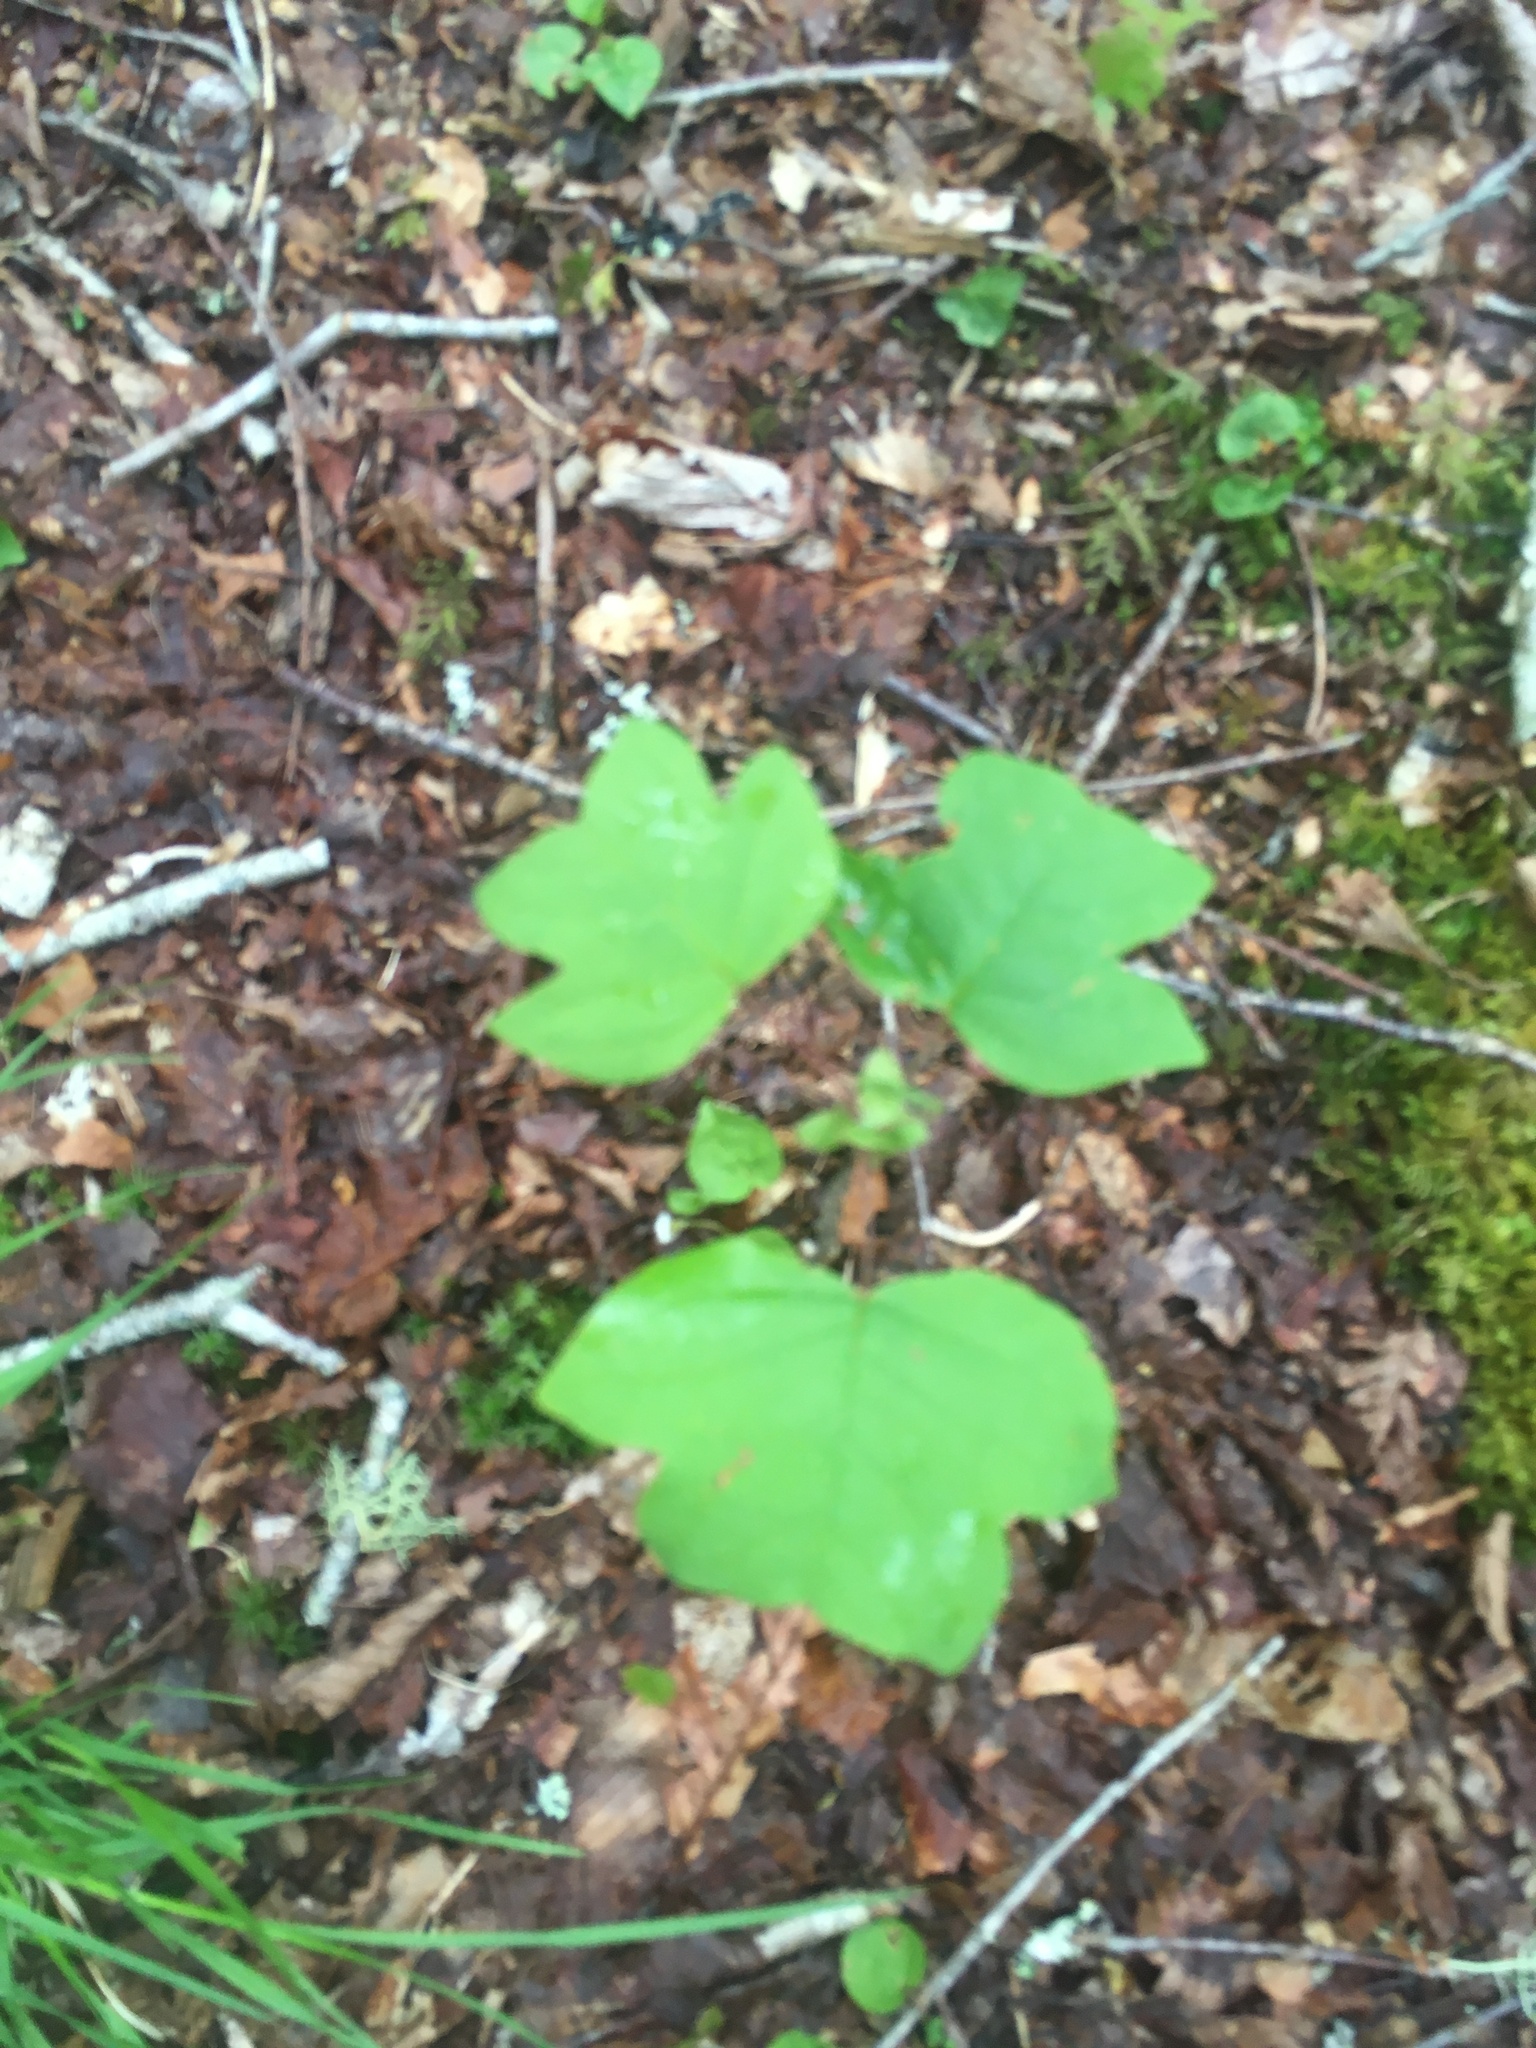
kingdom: Plantae
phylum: Tracheophyta
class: Magnoliopsida
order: Magnoliales
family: Magnoliaceae
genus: Liriodendron
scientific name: Liriodendron tulipifera
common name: Tulip tree
